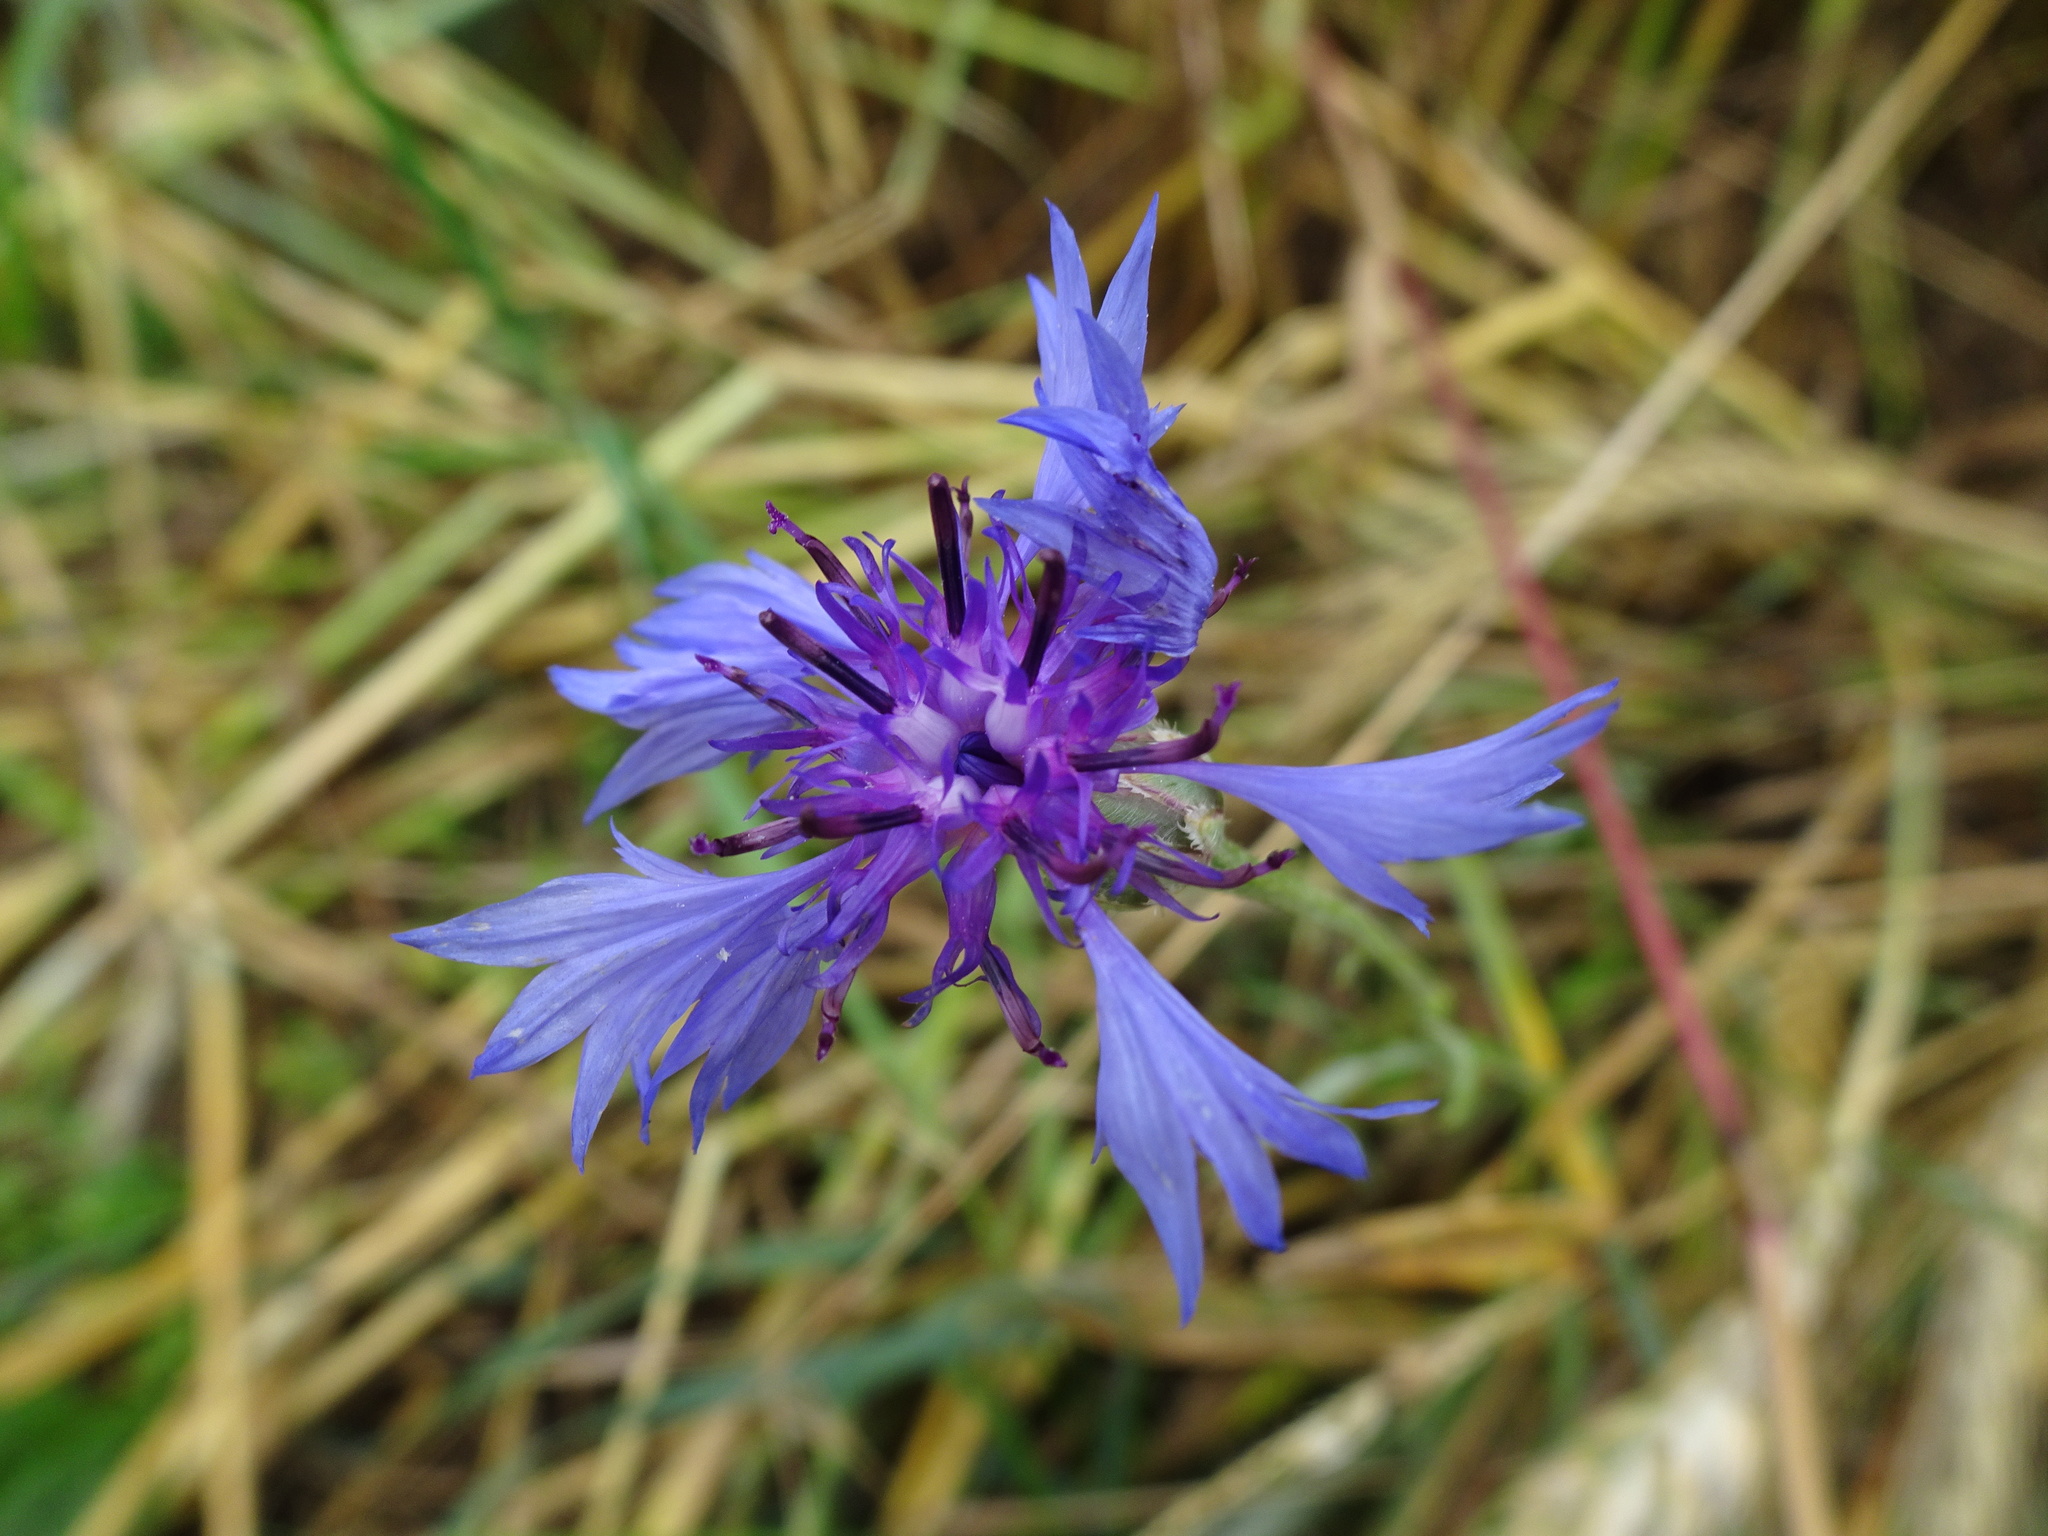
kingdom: Plantae
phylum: Tracheophyta
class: Magnoliopsida
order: Asterales
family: Asteraceae
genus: Centaurea
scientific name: Centaurea cyanus
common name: Cornflower
